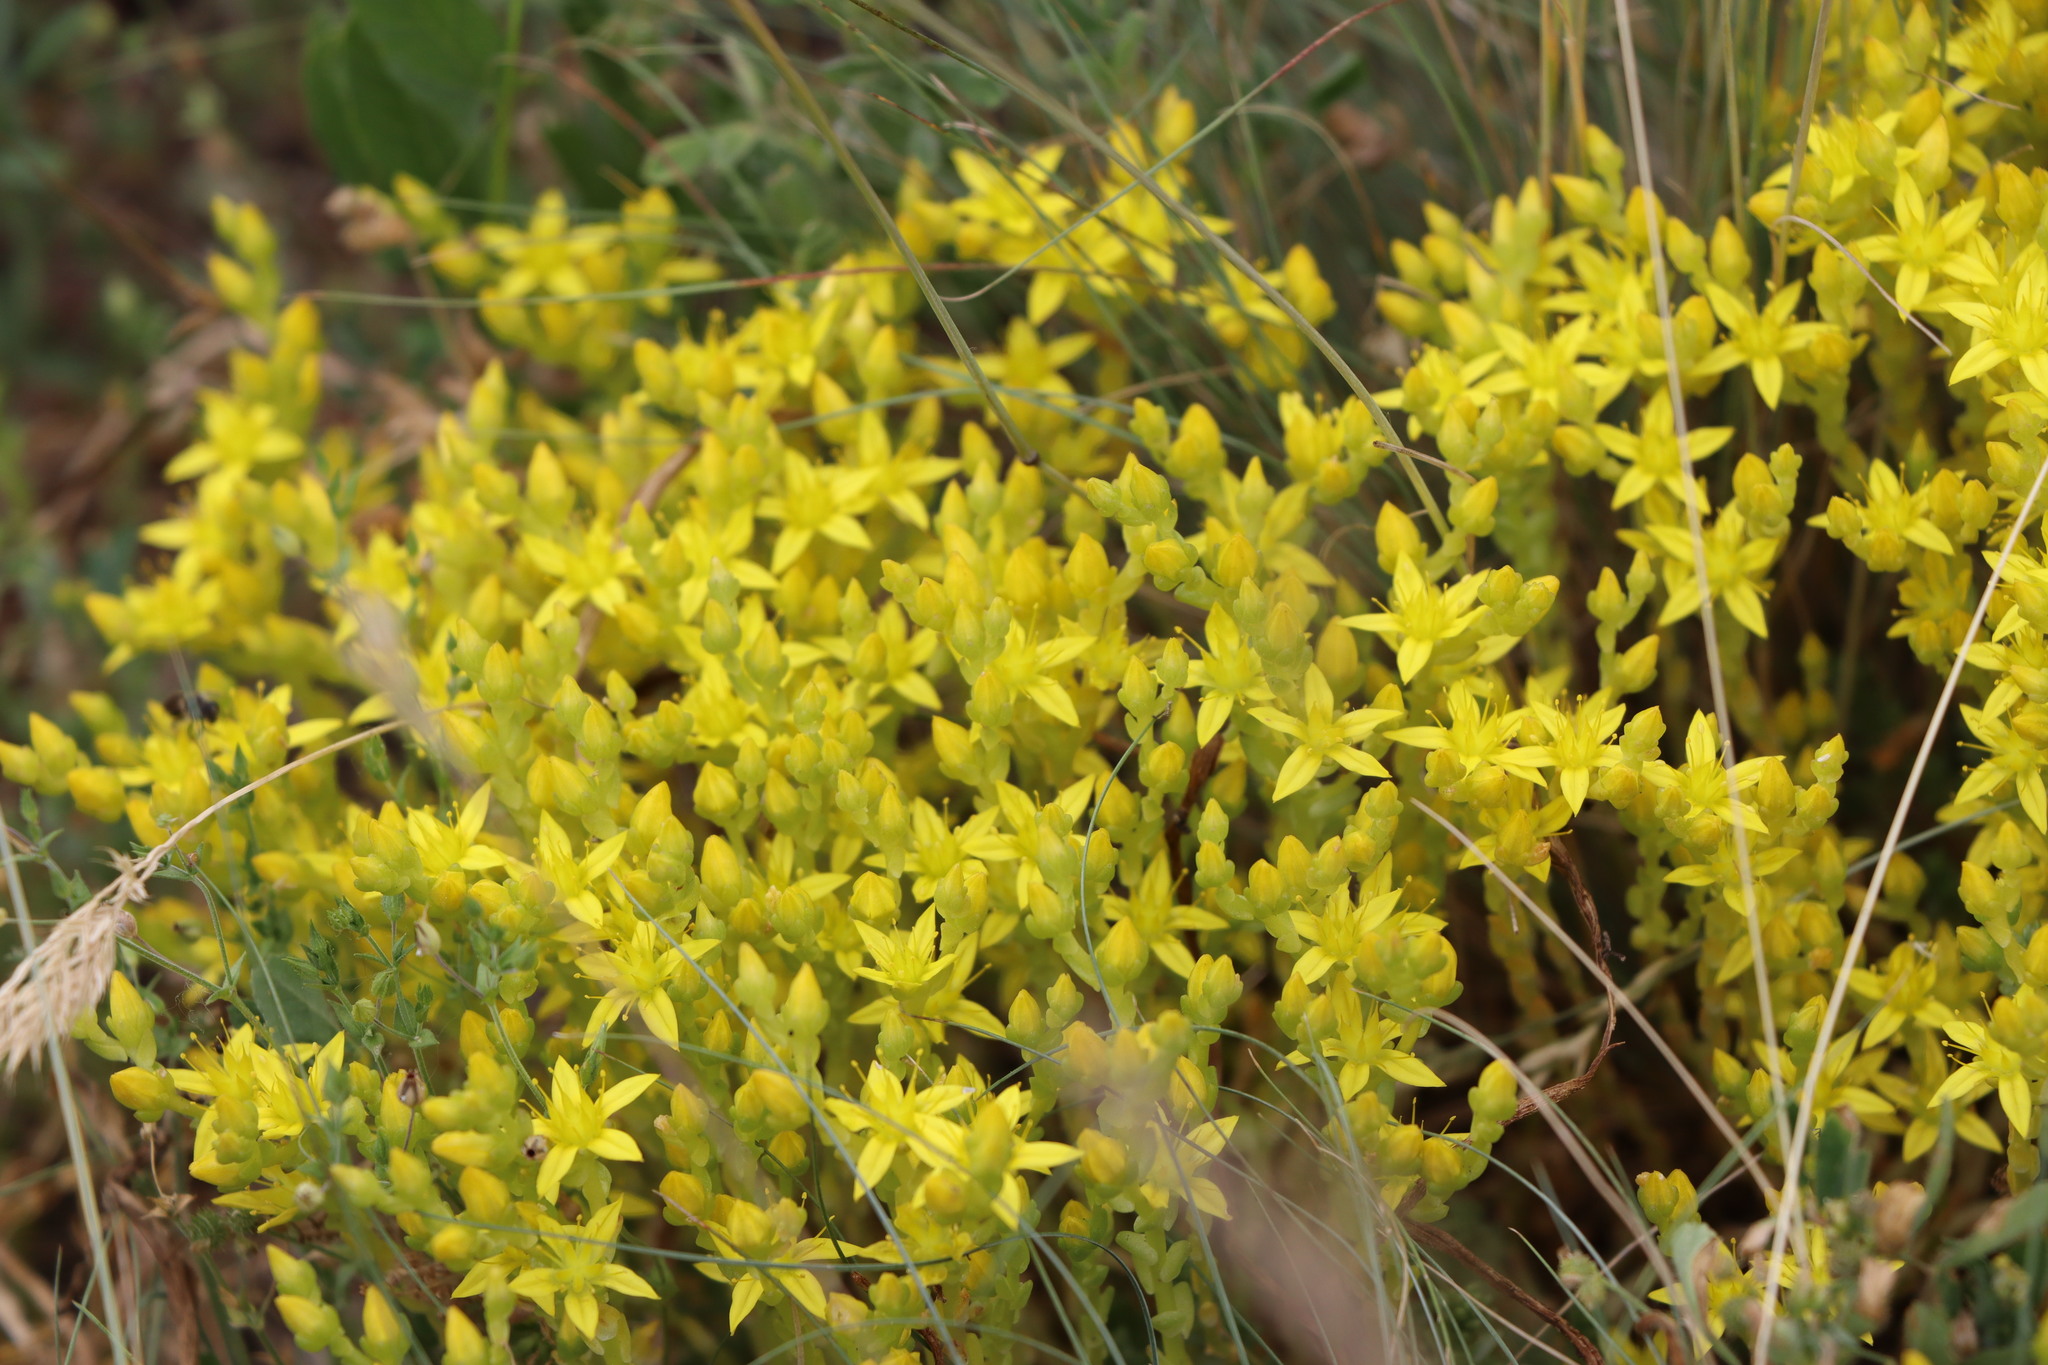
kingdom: Plantae
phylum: Tracheophyta
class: Magnoliopsida
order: Saxifragales
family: Crassulaceae
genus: Sedum
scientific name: Sedum acre
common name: Biting stonecrop
